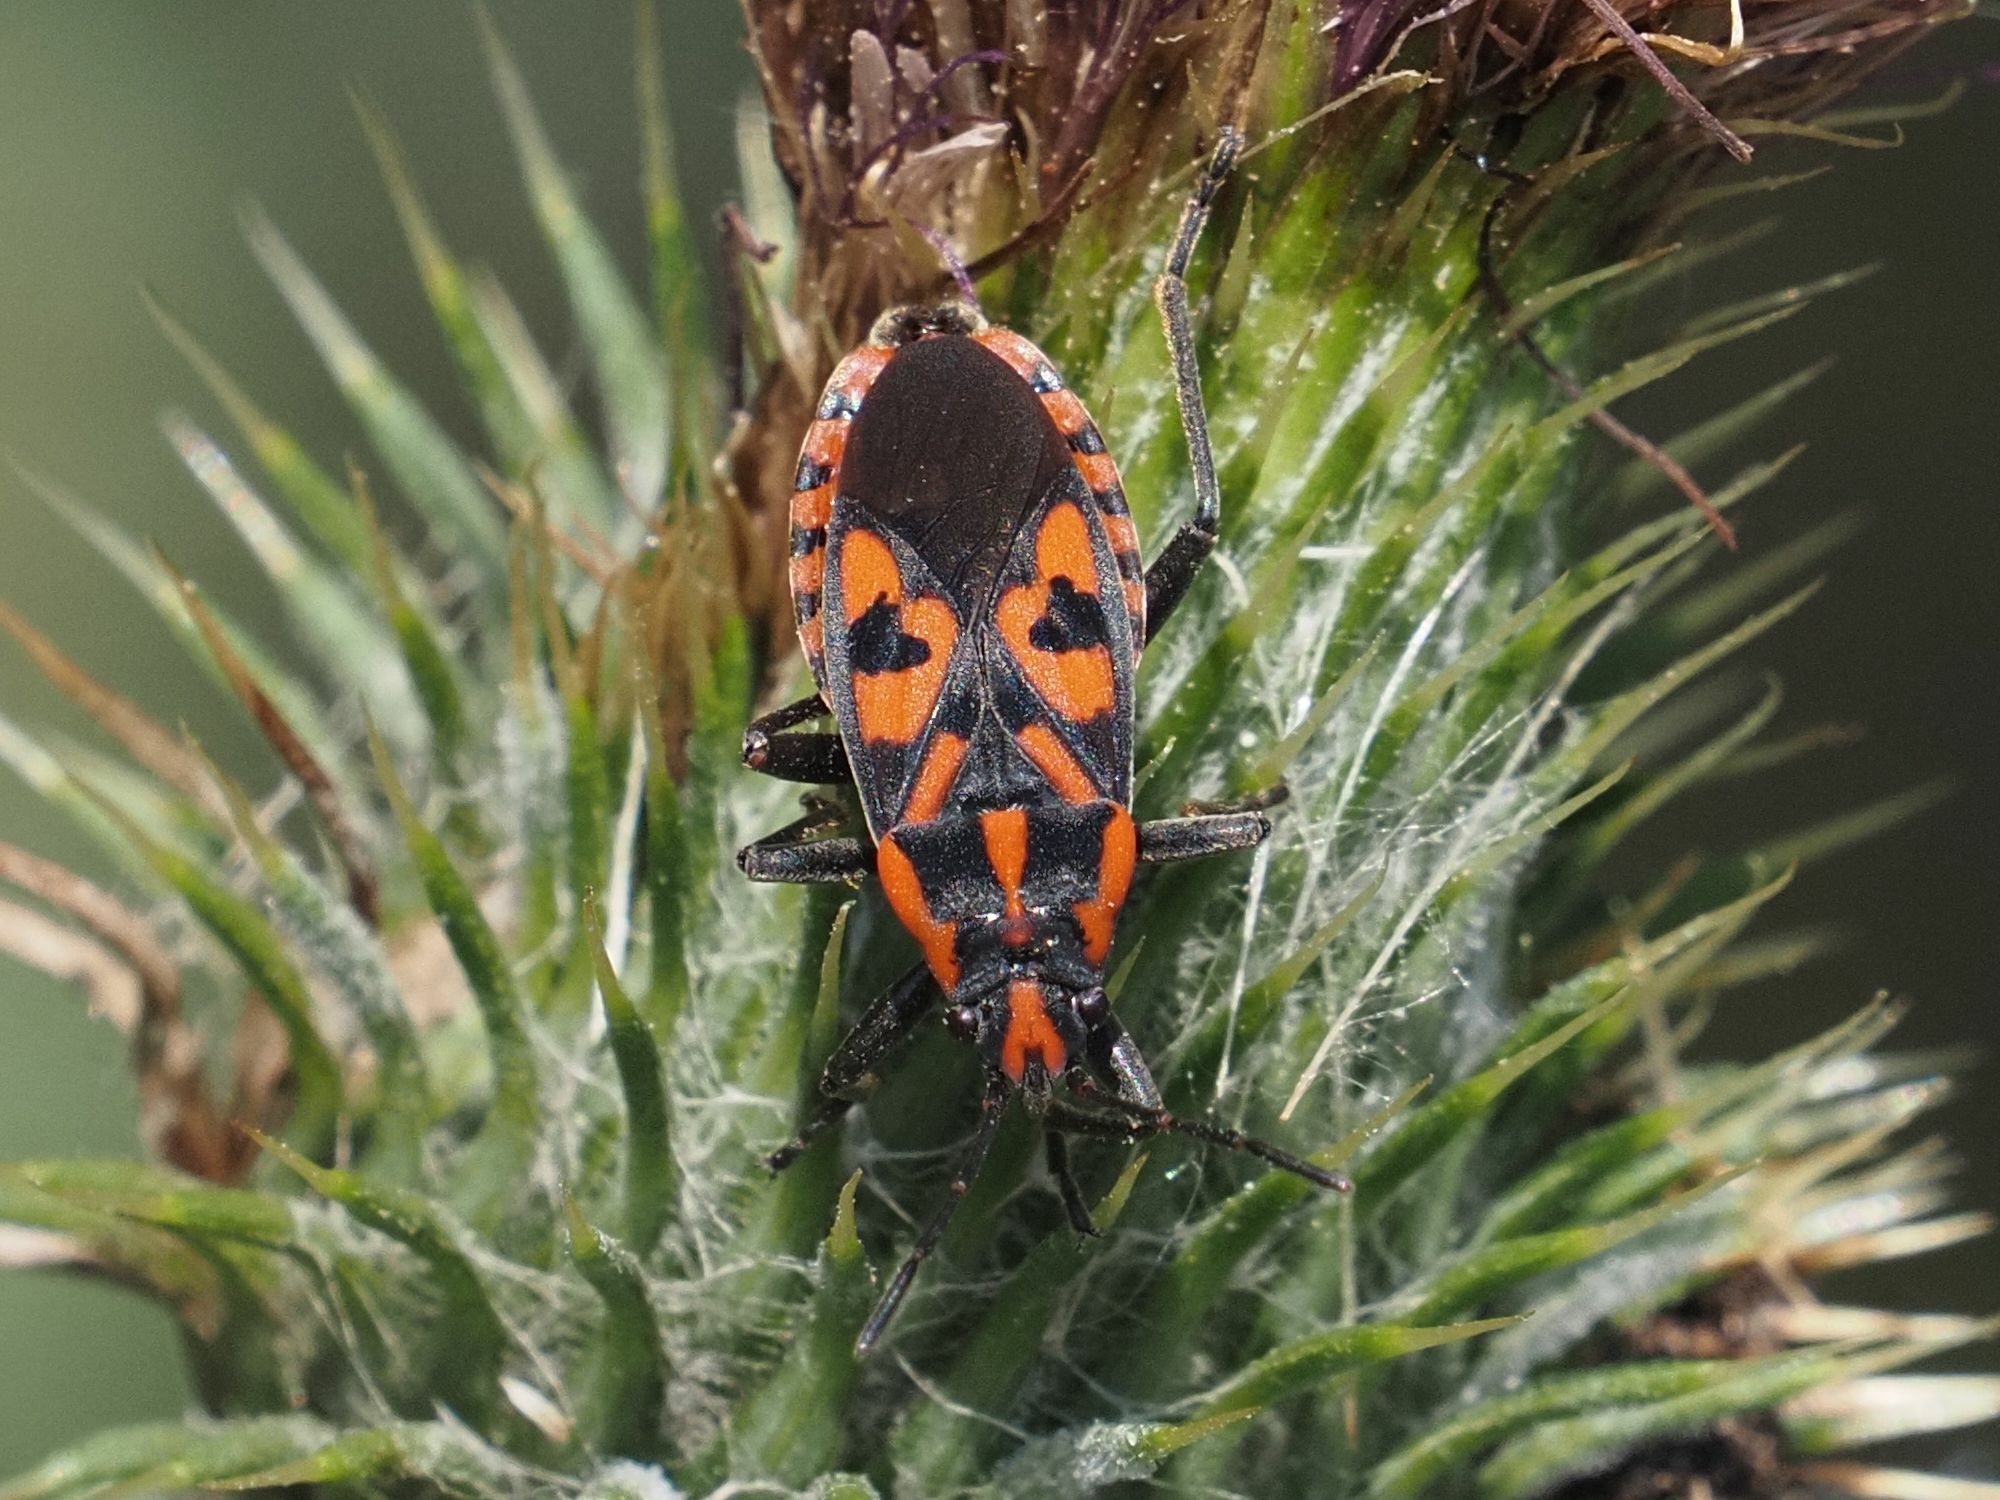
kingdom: Animalia
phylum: Arthropoda
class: Insecta
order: Hemiptera
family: Lygaeidae
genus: Spilostethus
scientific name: Spilostethus saxatilis
